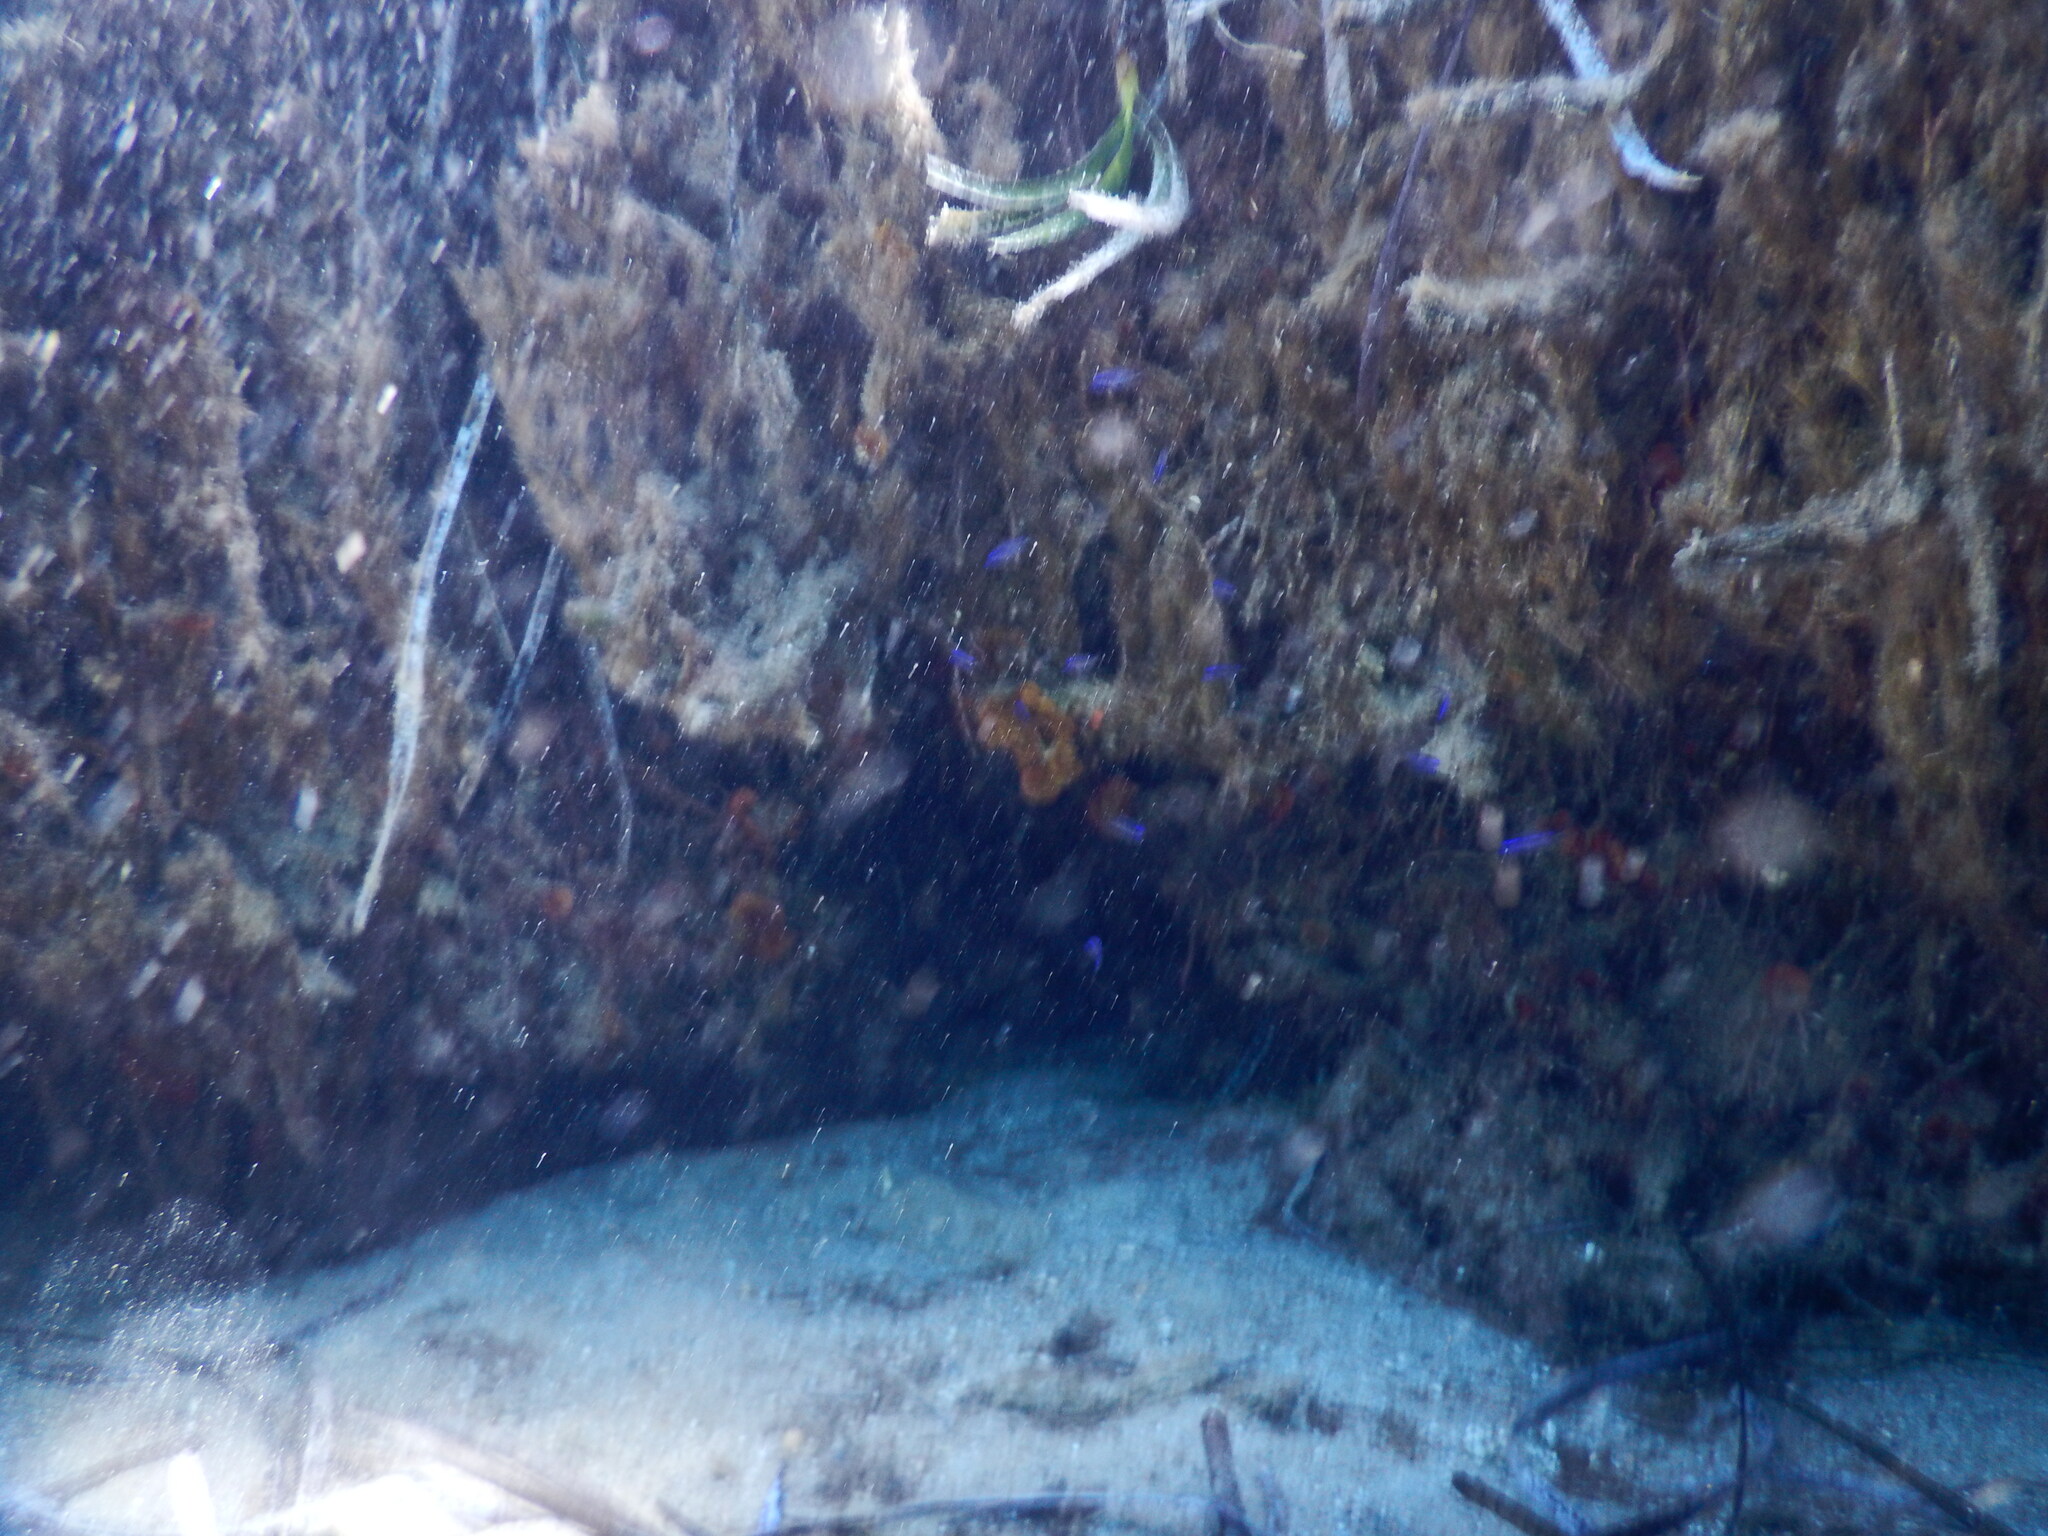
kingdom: Plantae
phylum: Tracheophyta
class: Liliopsida
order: Alismatales
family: Posidoniaceae
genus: Posidonia
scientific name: Posidonia oceanica
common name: Mediterranean tapeweed
